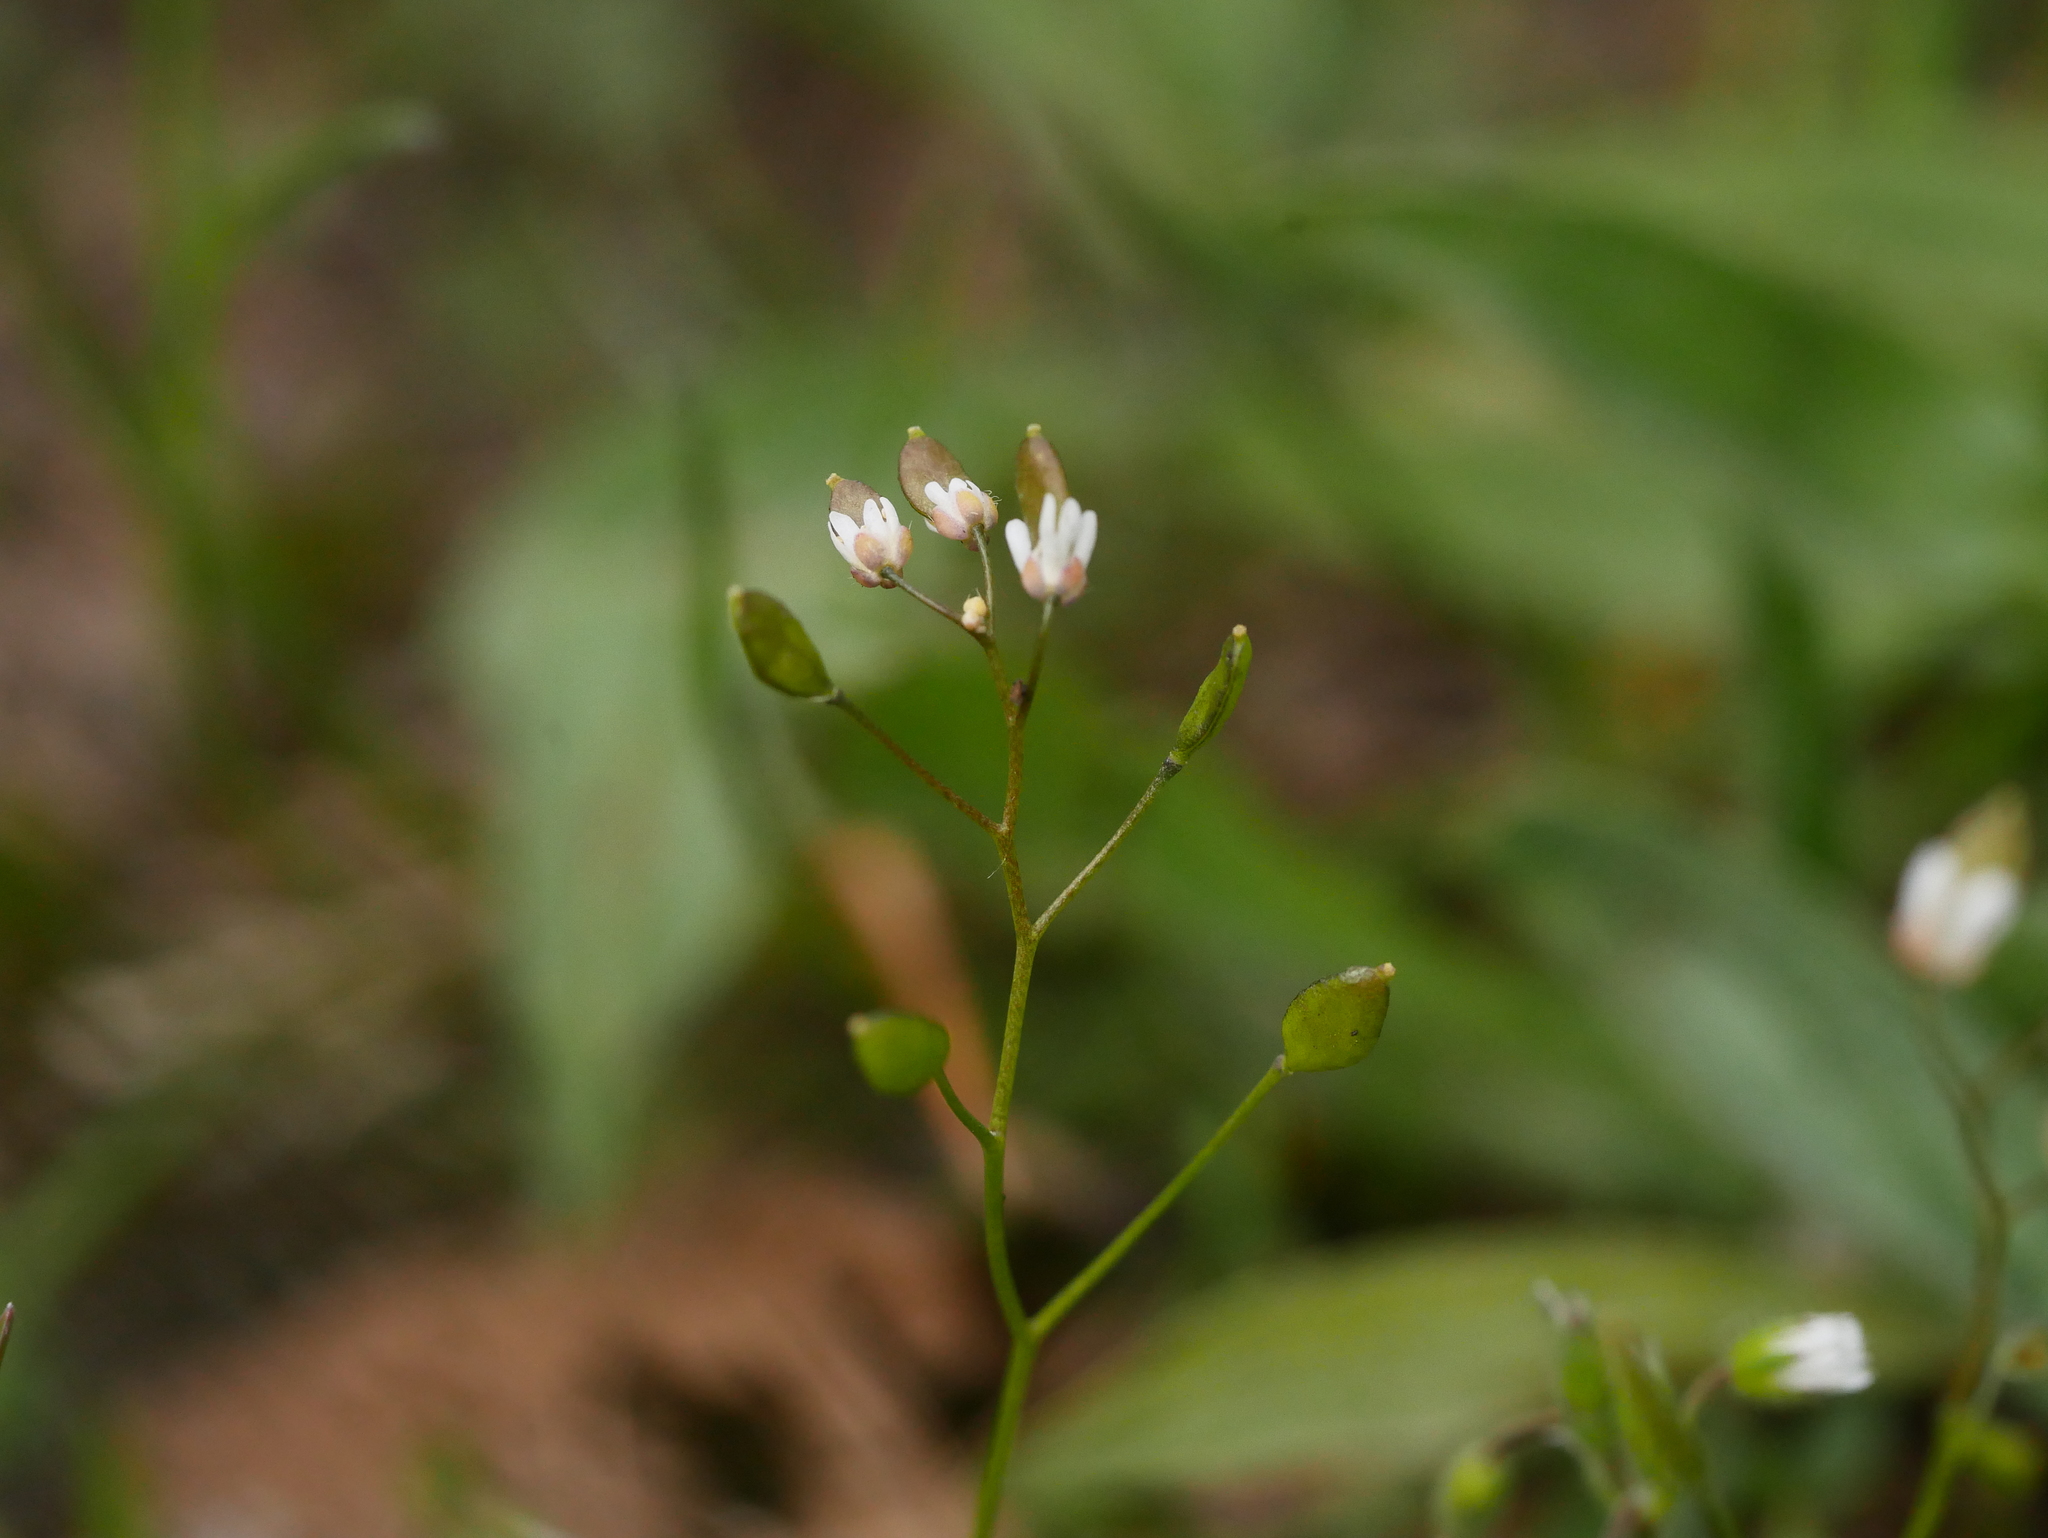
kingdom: Plantae
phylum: Tracheophyta
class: Magnoliopsida
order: Brassicales
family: Brassicaceae
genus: Draba
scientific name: Draba verna
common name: Spring draba
